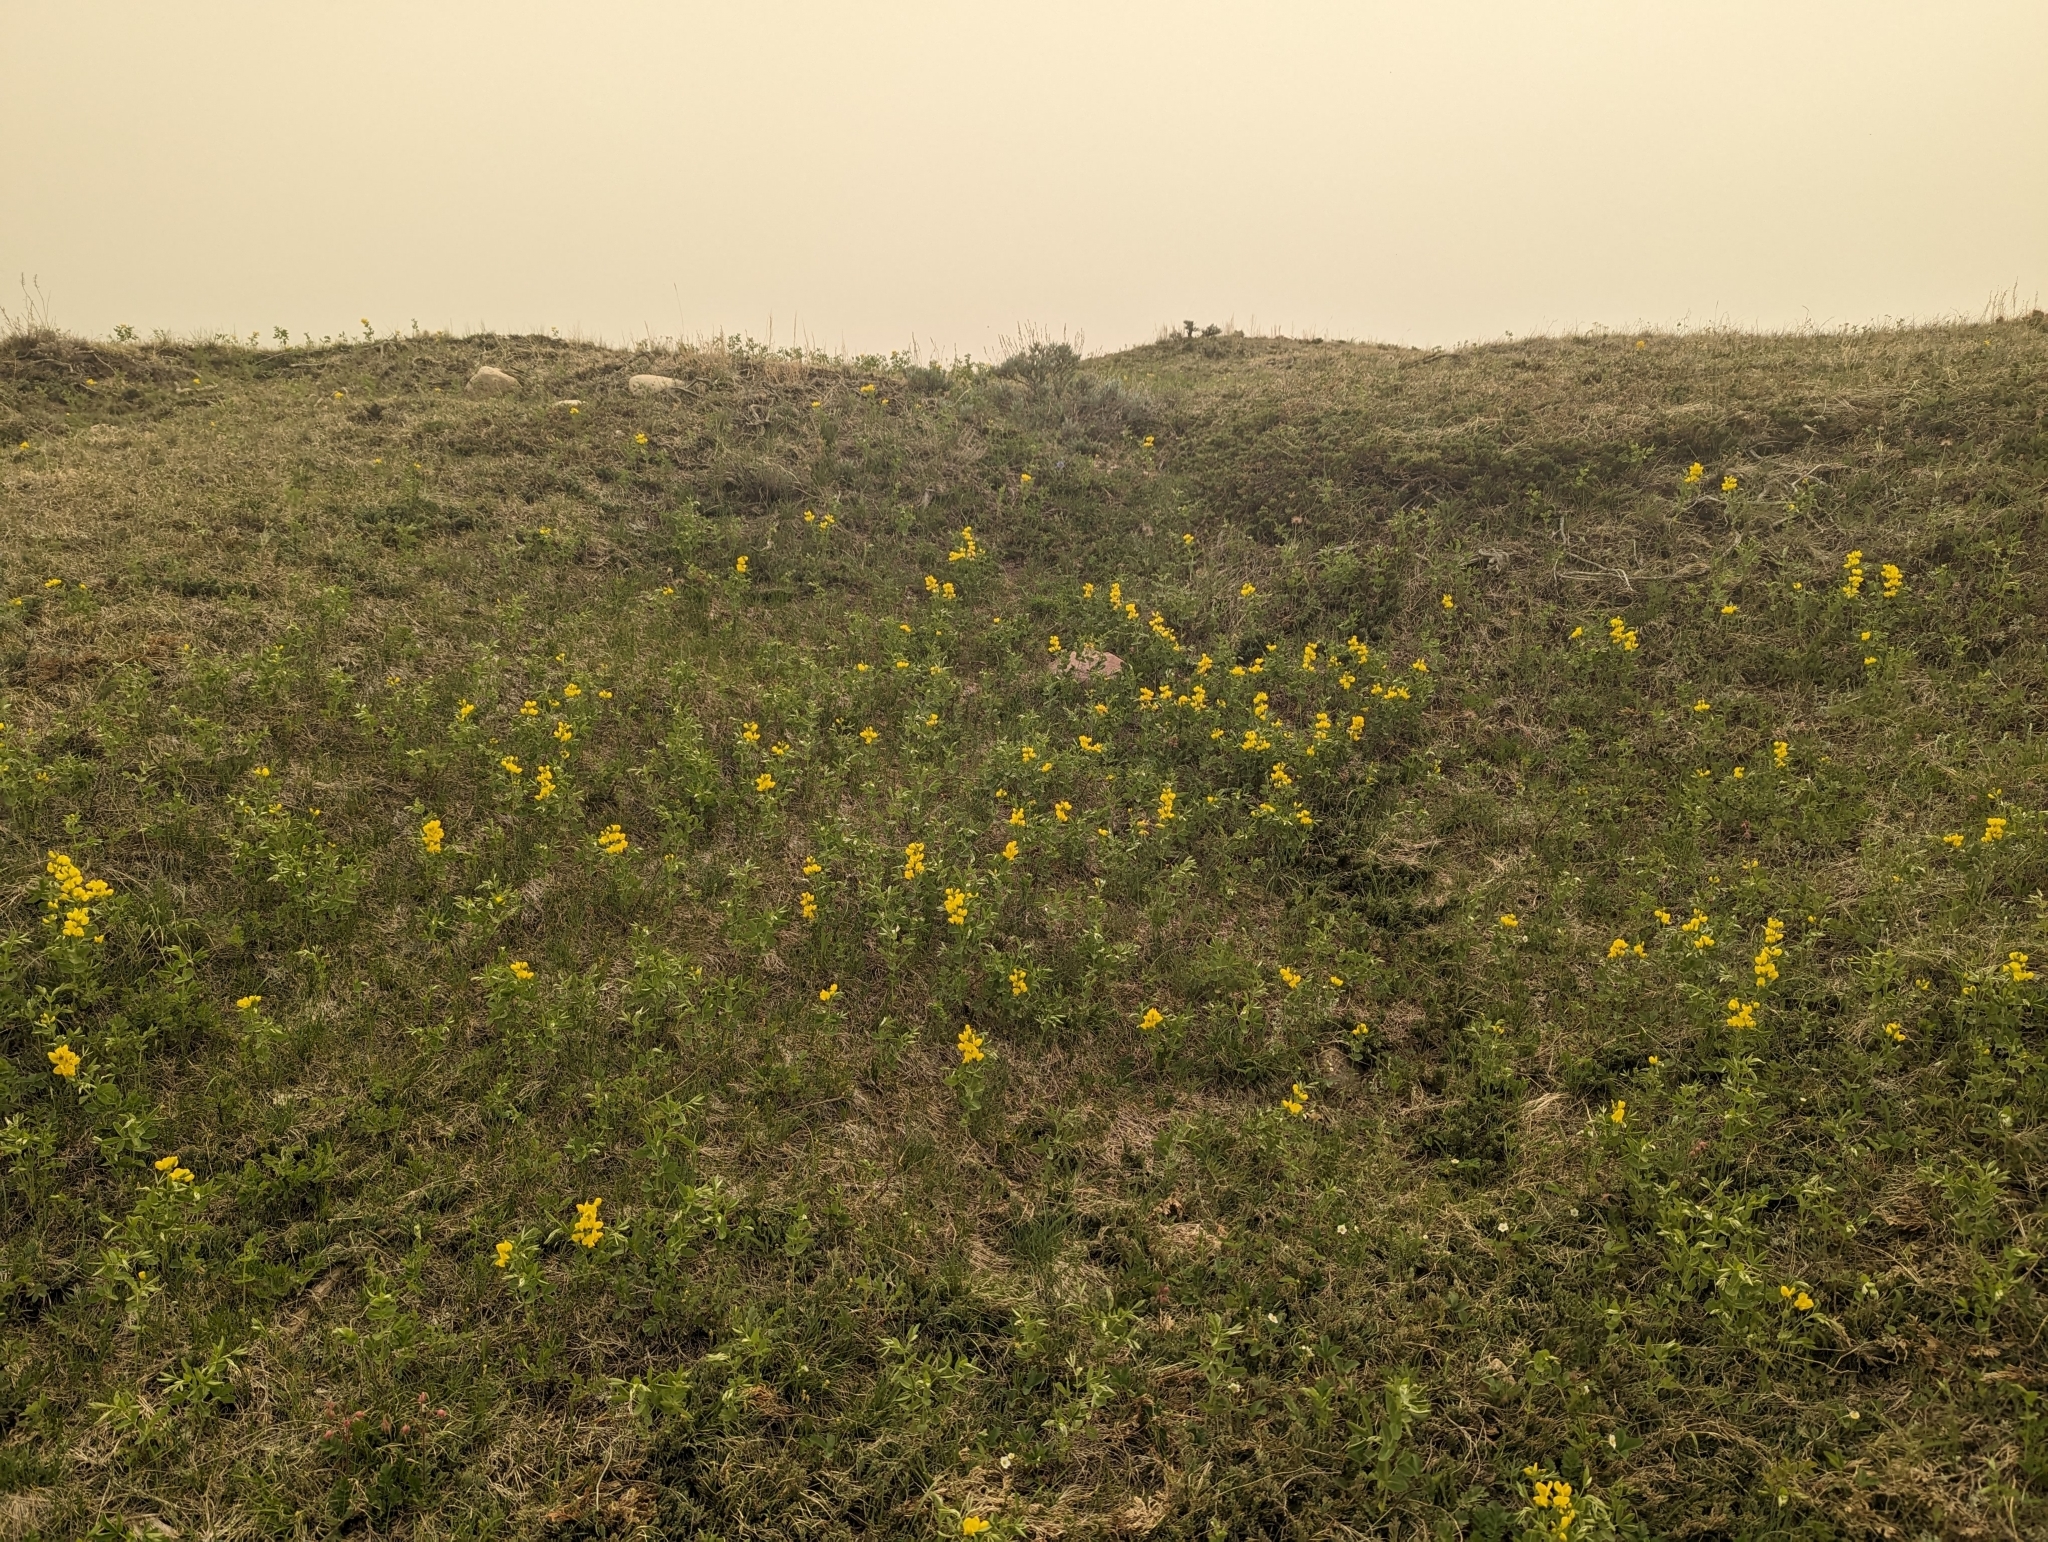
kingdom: Plantae
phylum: Tracheophyta
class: Magnoliopsida
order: Fabales
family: Fabaceae
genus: Thermopsis
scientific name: Thermopsis rhombifolia
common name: Circle-pod-pea
